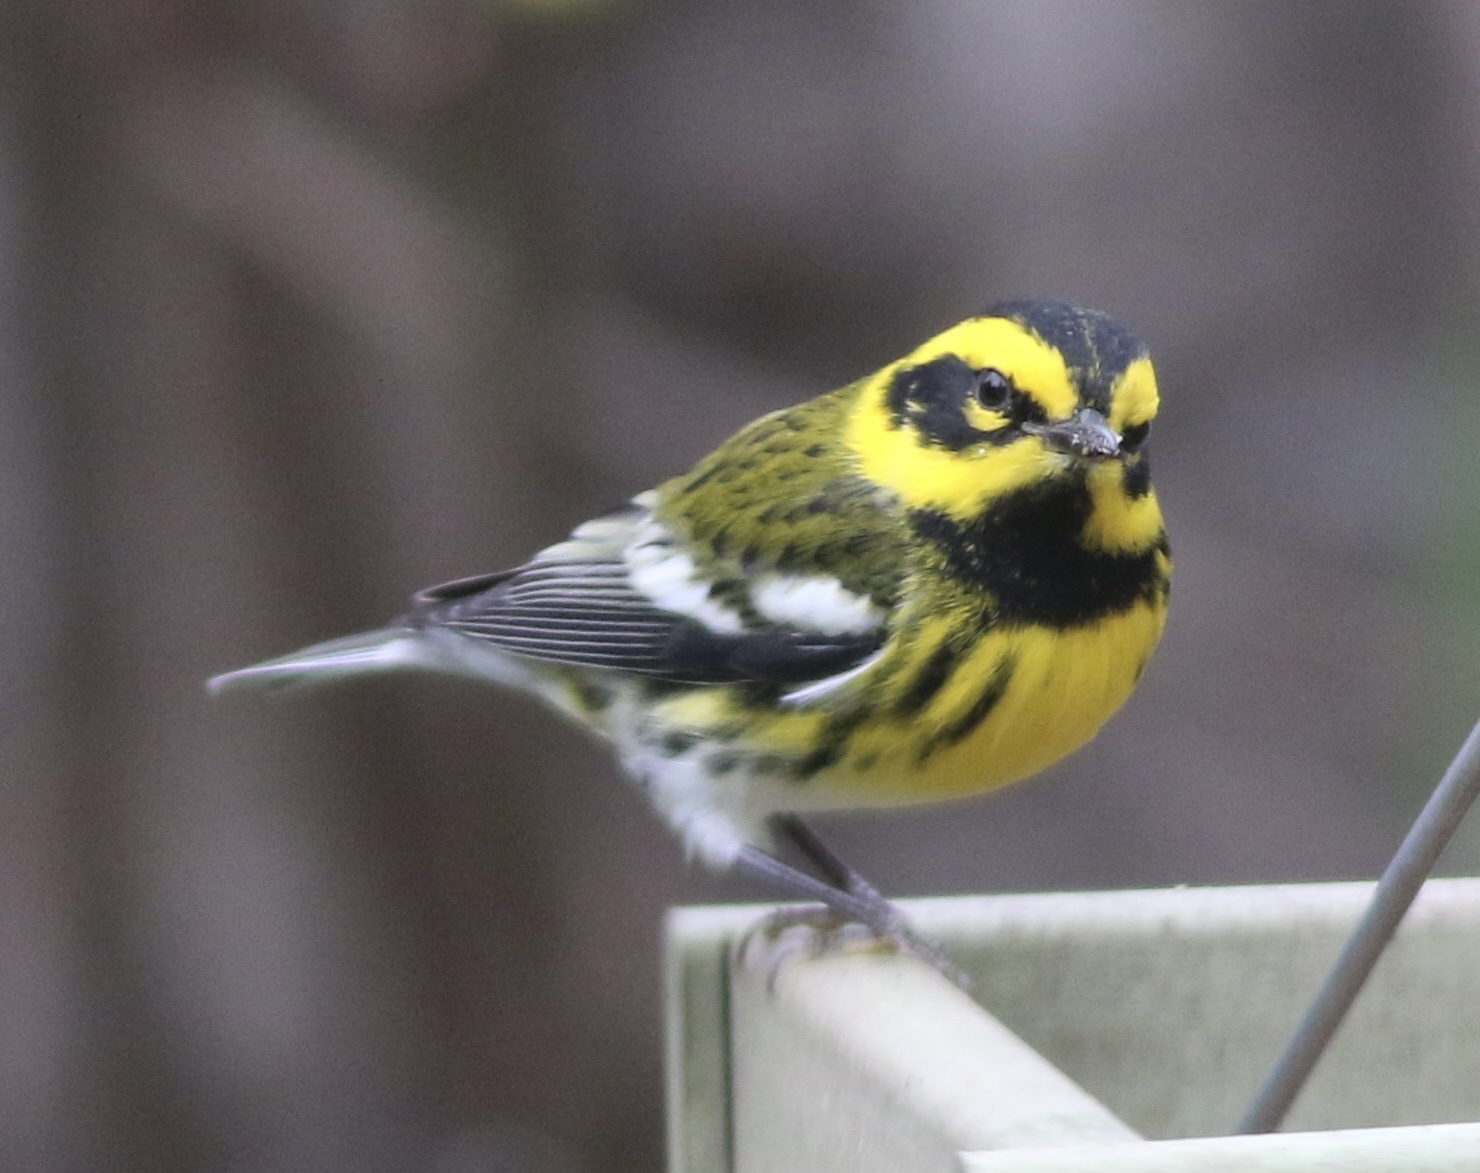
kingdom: Animalia
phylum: Chordata
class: Aves
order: Passeriformes
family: Parulidae
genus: Setophaga
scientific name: Setophaga townsendi
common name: Townsend's warbler
